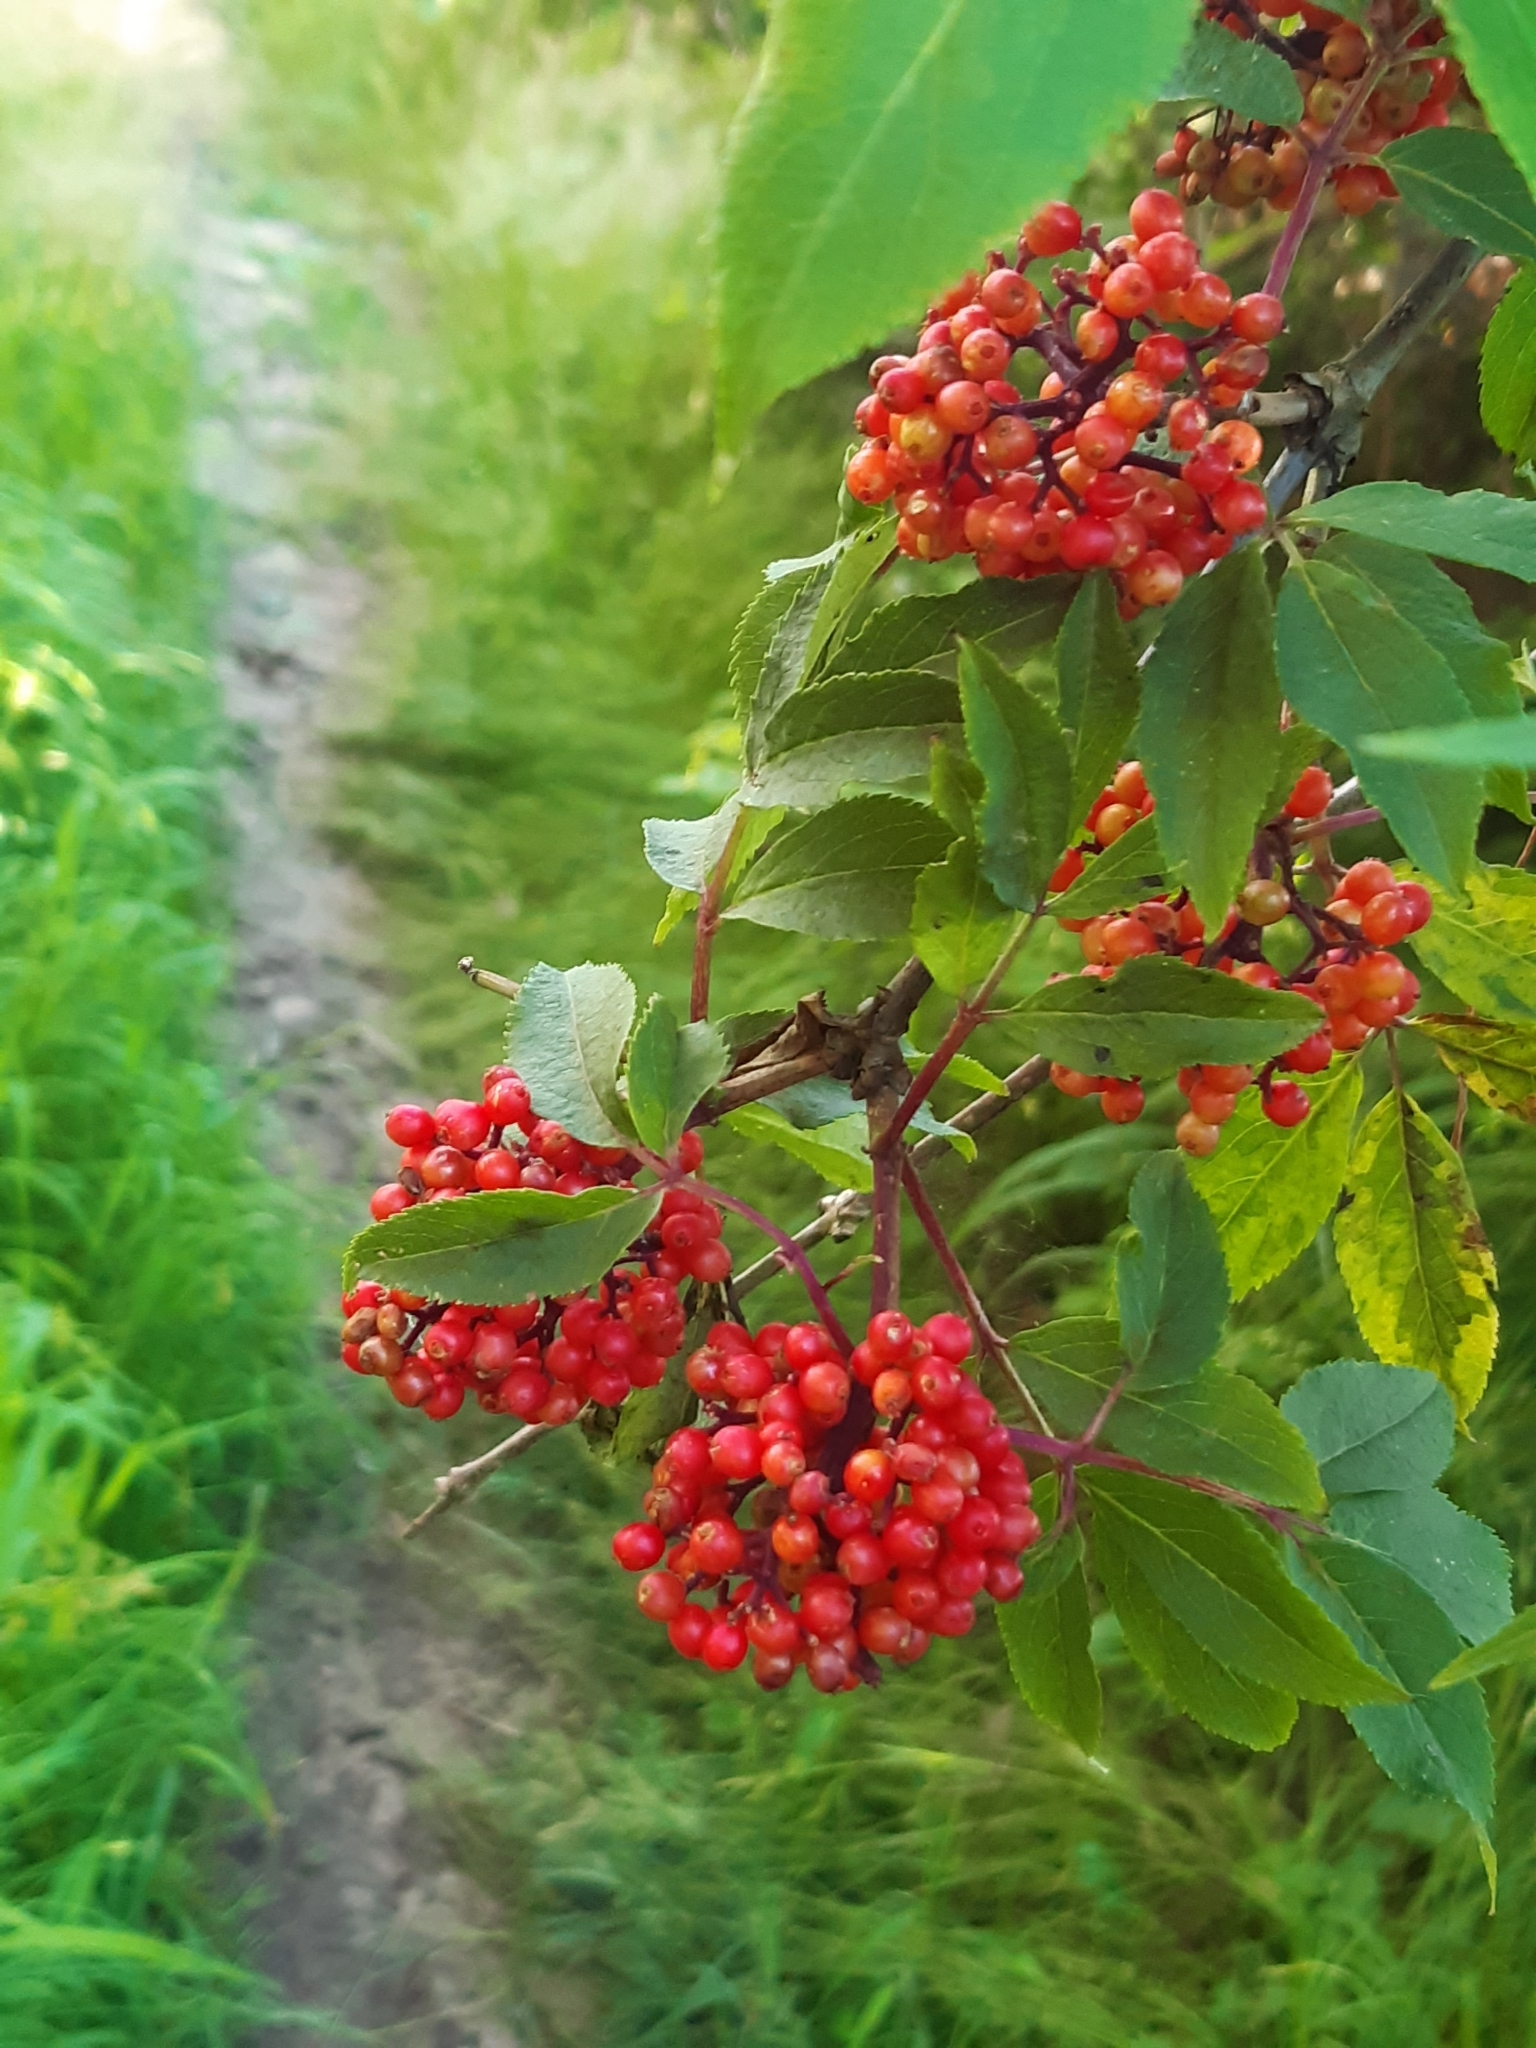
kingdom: Plantae
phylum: Tracheophyta
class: Magnoliopsida
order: Dipsacales
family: Viburnaceae
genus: Sambucus
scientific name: Sambucus racemosa
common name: Red-berried elder
